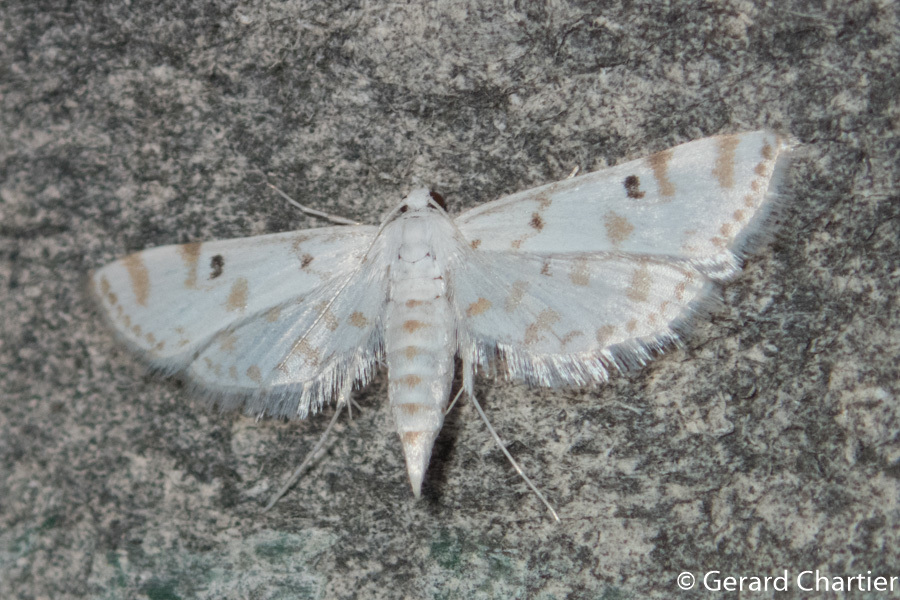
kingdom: Animalia
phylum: Arthropoda
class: Insecta
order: Lepidoptera
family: Crambidae
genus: Parapoynx
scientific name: Parapoynx stagnalis
